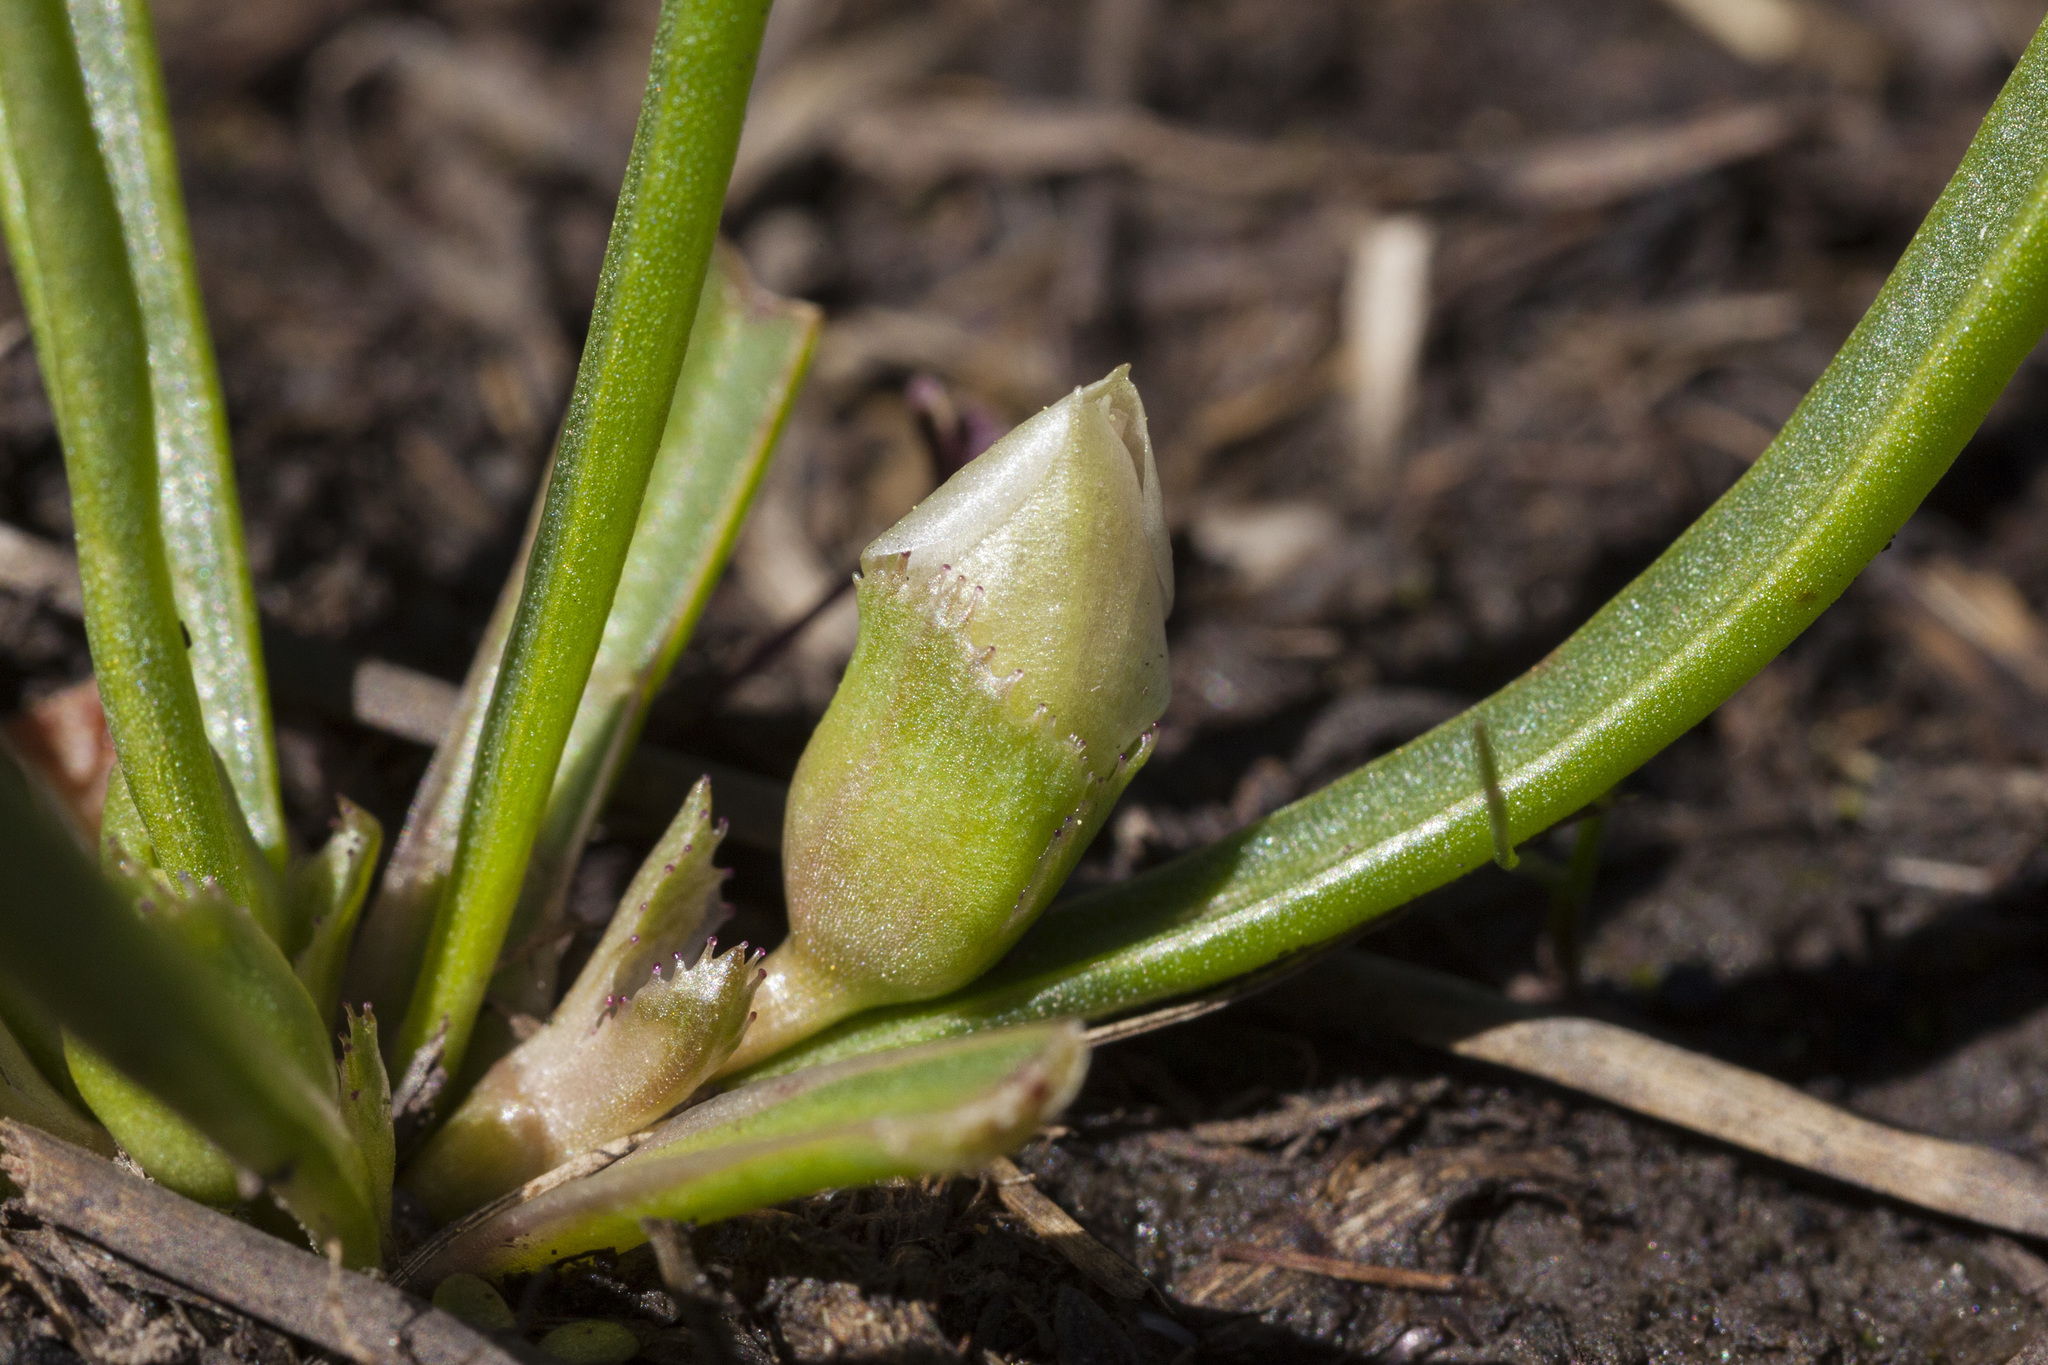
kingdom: Plantae
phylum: Tracheophyta
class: Magnoliopsida
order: Caryophyllales
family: Montiaceae
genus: Lewisia
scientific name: Lewisia pygmaea
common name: Alpine bitterroot
